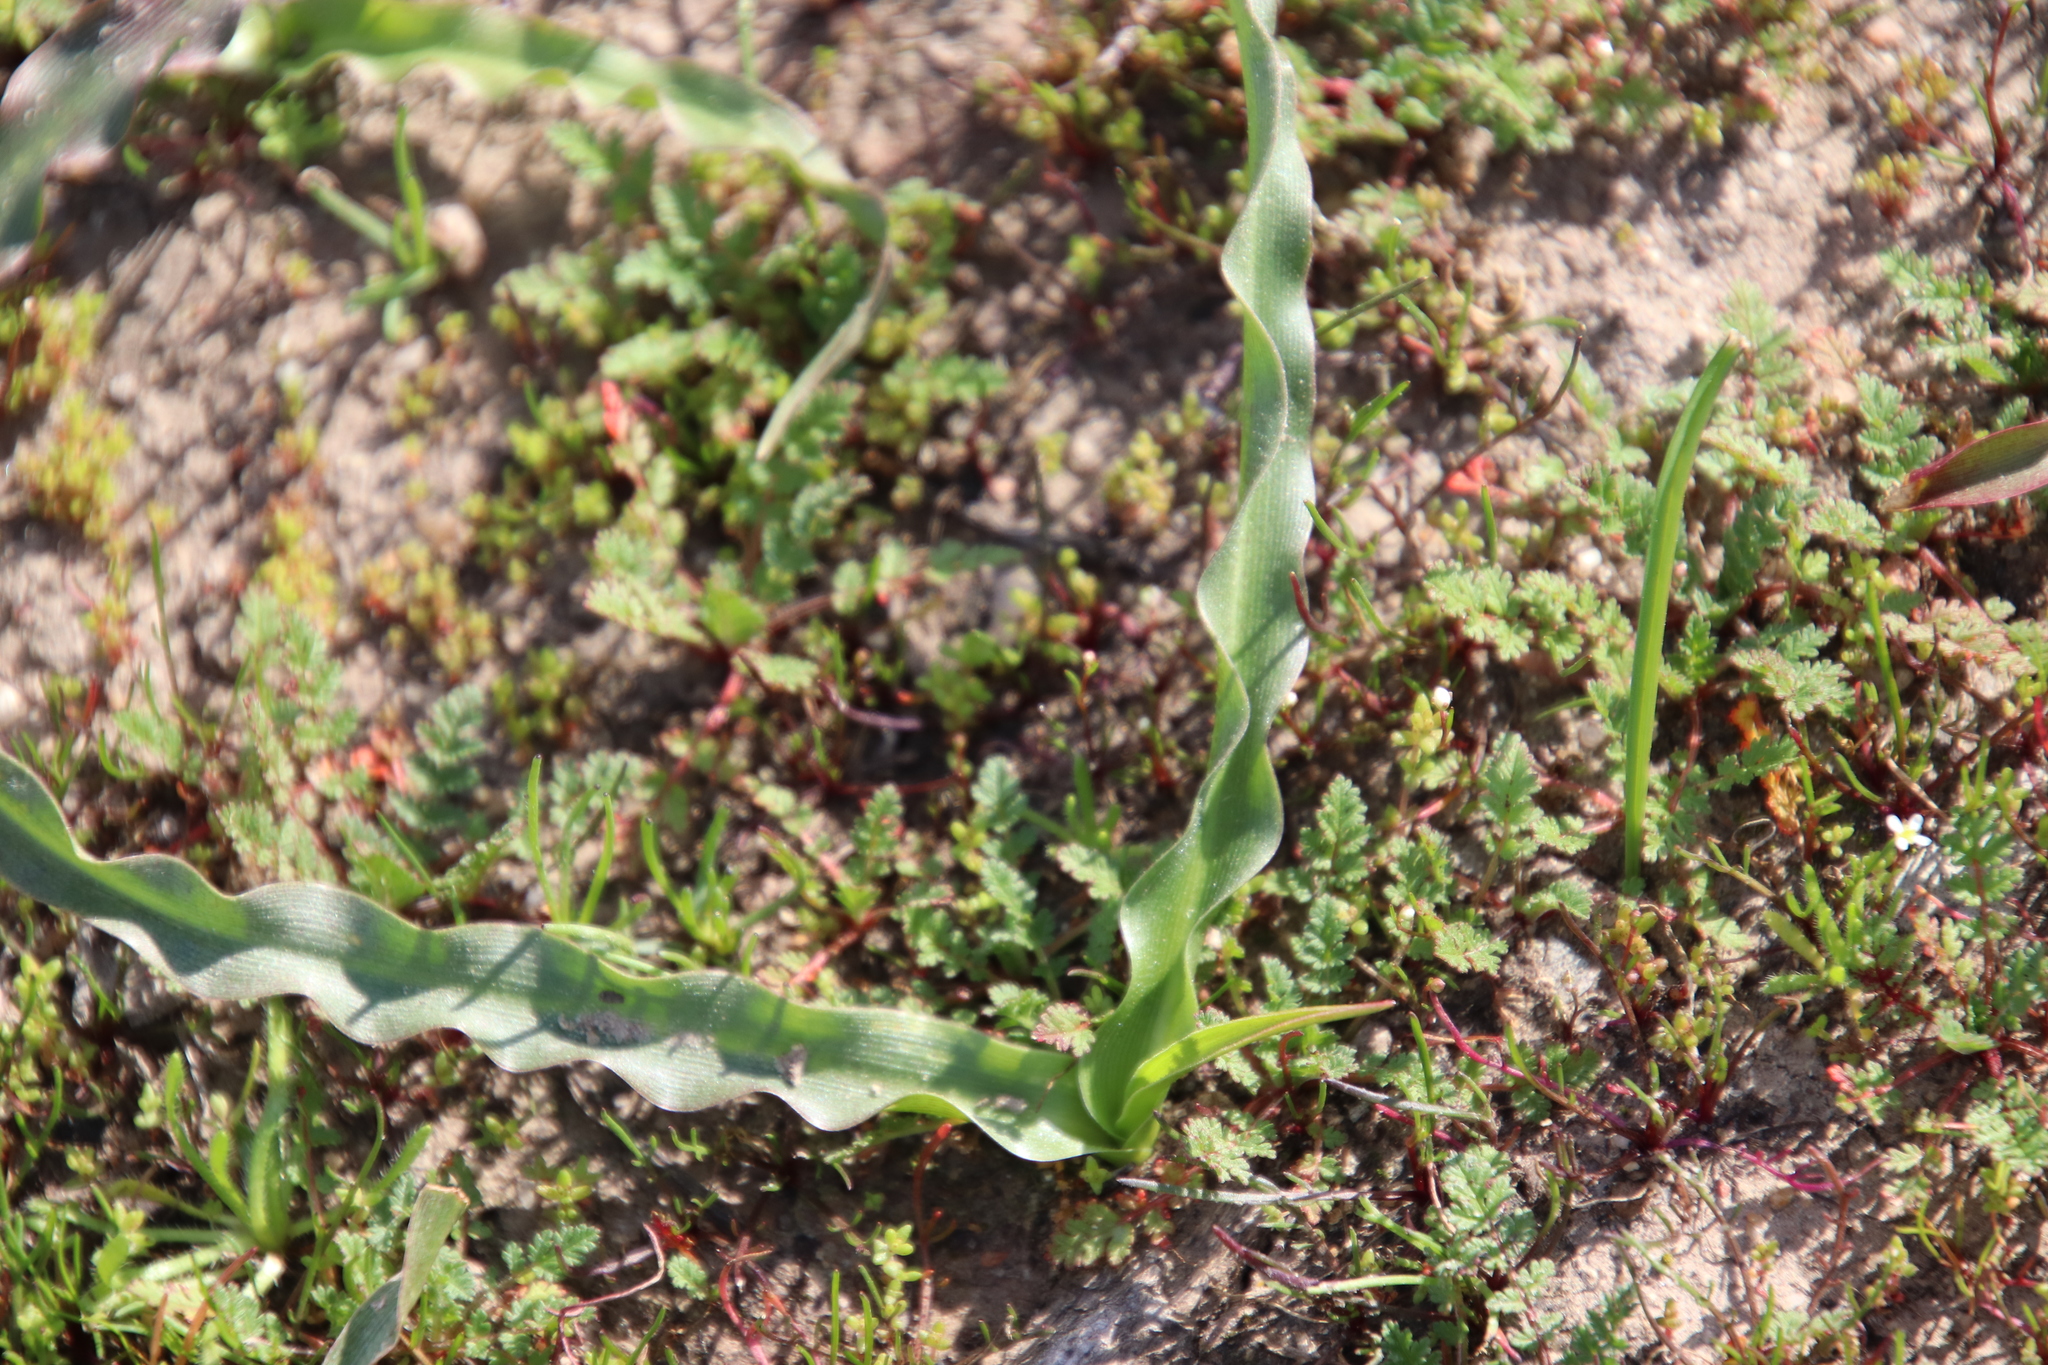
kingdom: Plantae
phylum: Tracheophyta
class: Liliopsida
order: Asparagales
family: Asparagaceae
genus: Hooveria
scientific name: Hooveria parviflora
